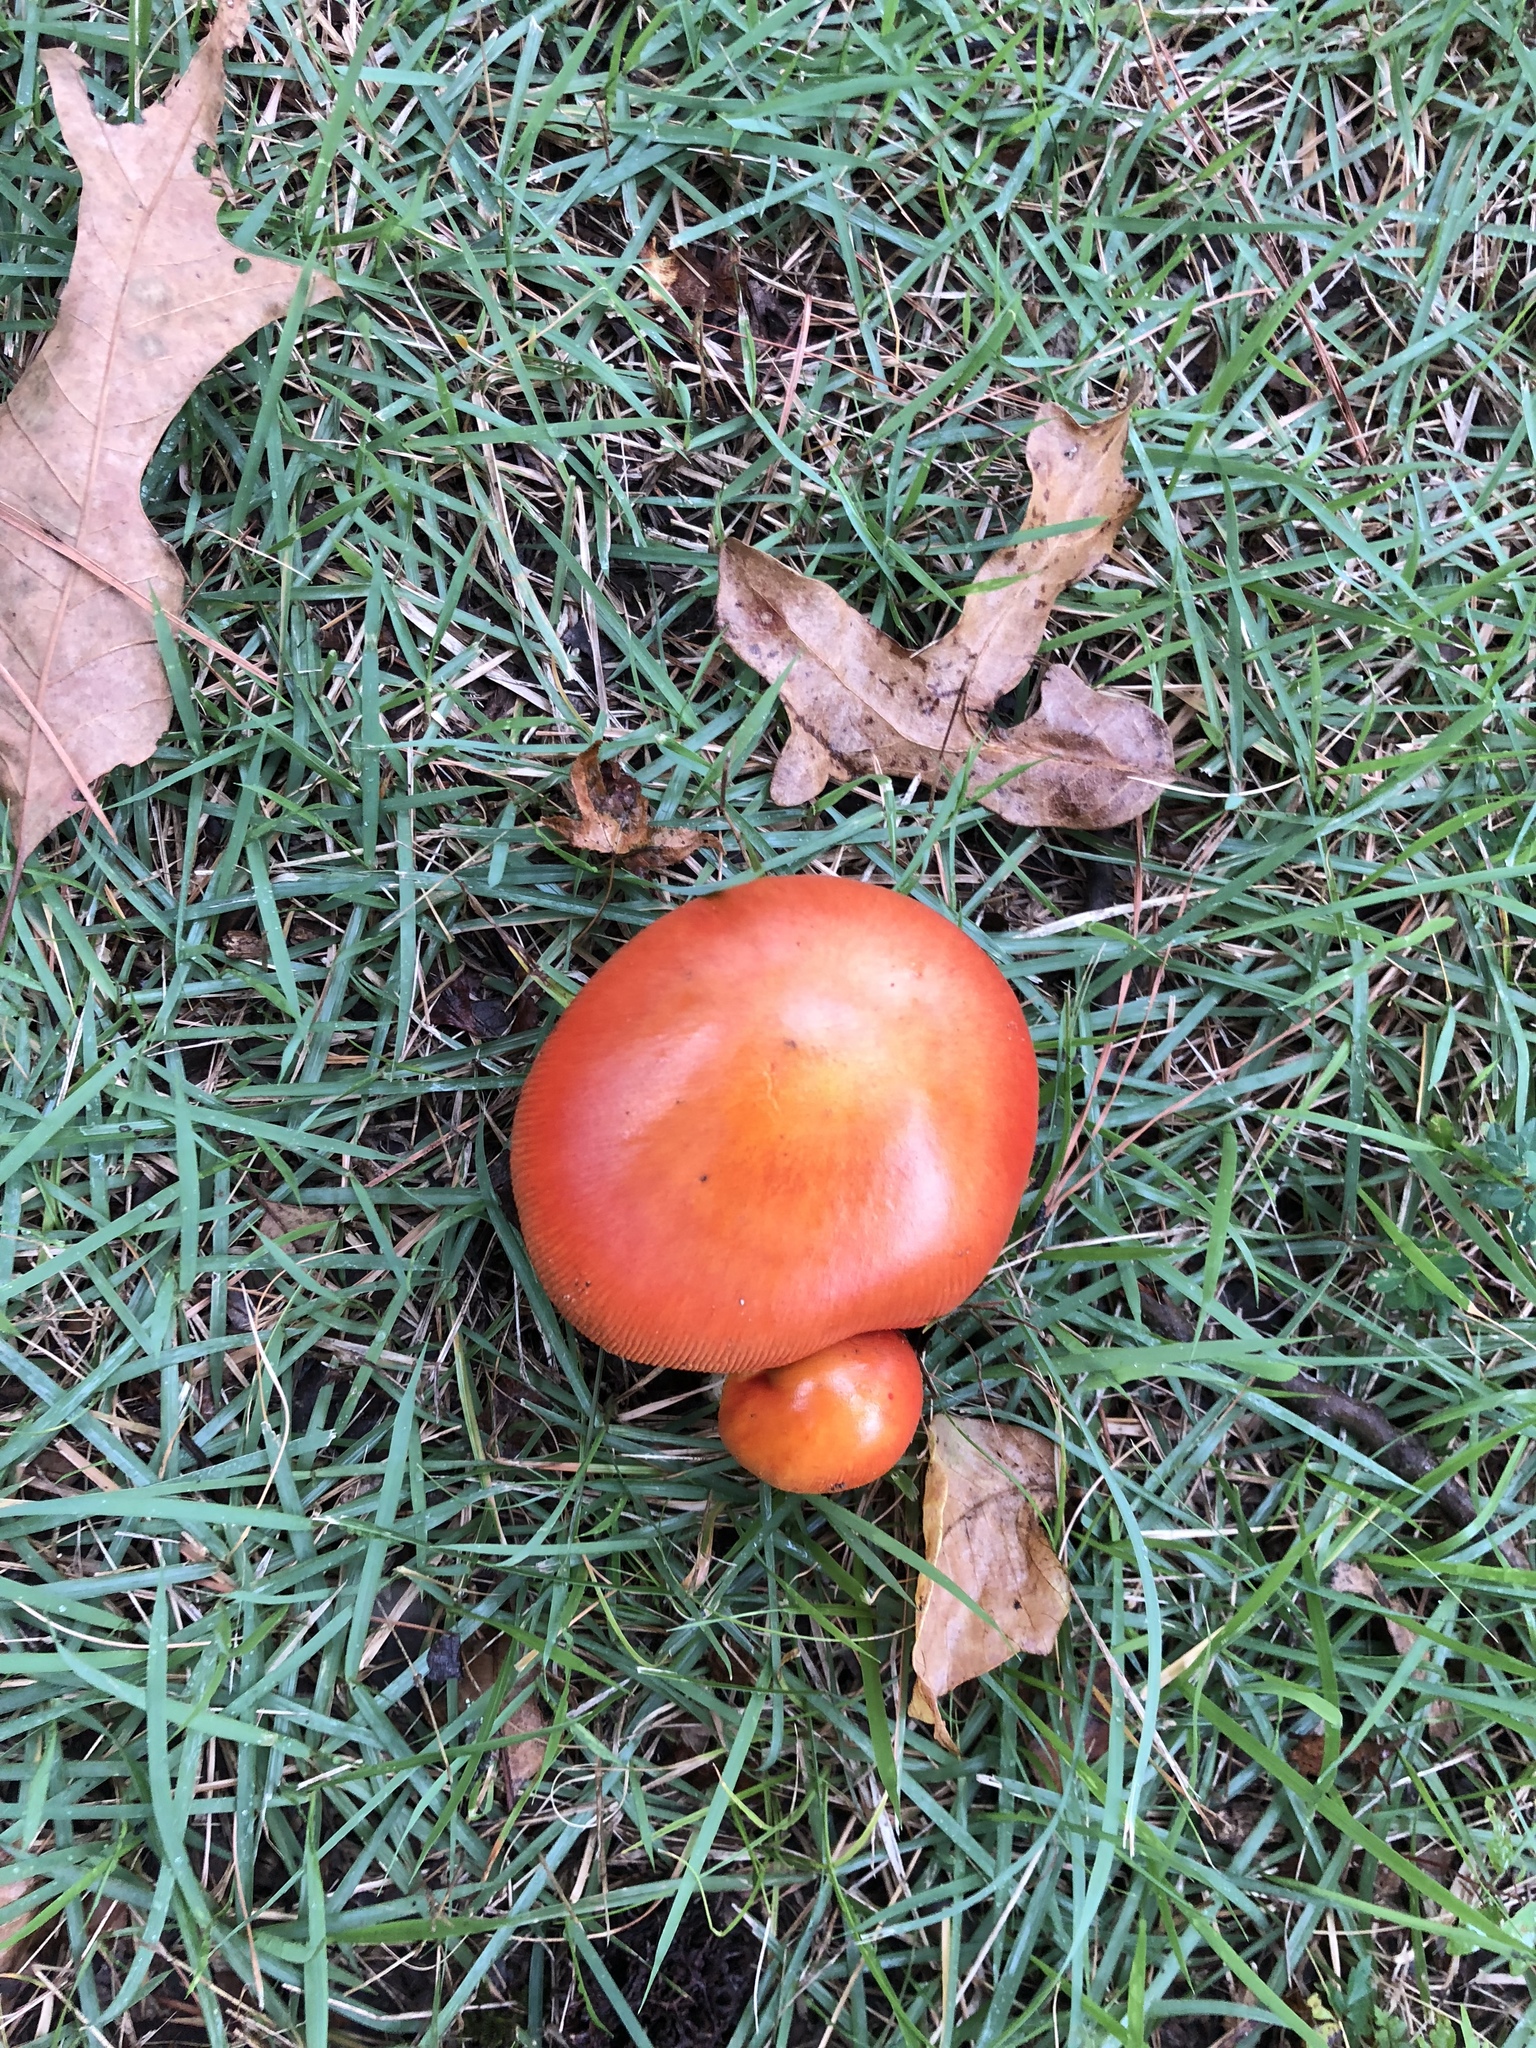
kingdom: Fungi
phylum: Basidiomycota
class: Agaricomycetes
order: Agaricales
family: Amanitaceae
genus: Amanita
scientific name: Amanita jacksonii
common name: Jackson's slender caesar
